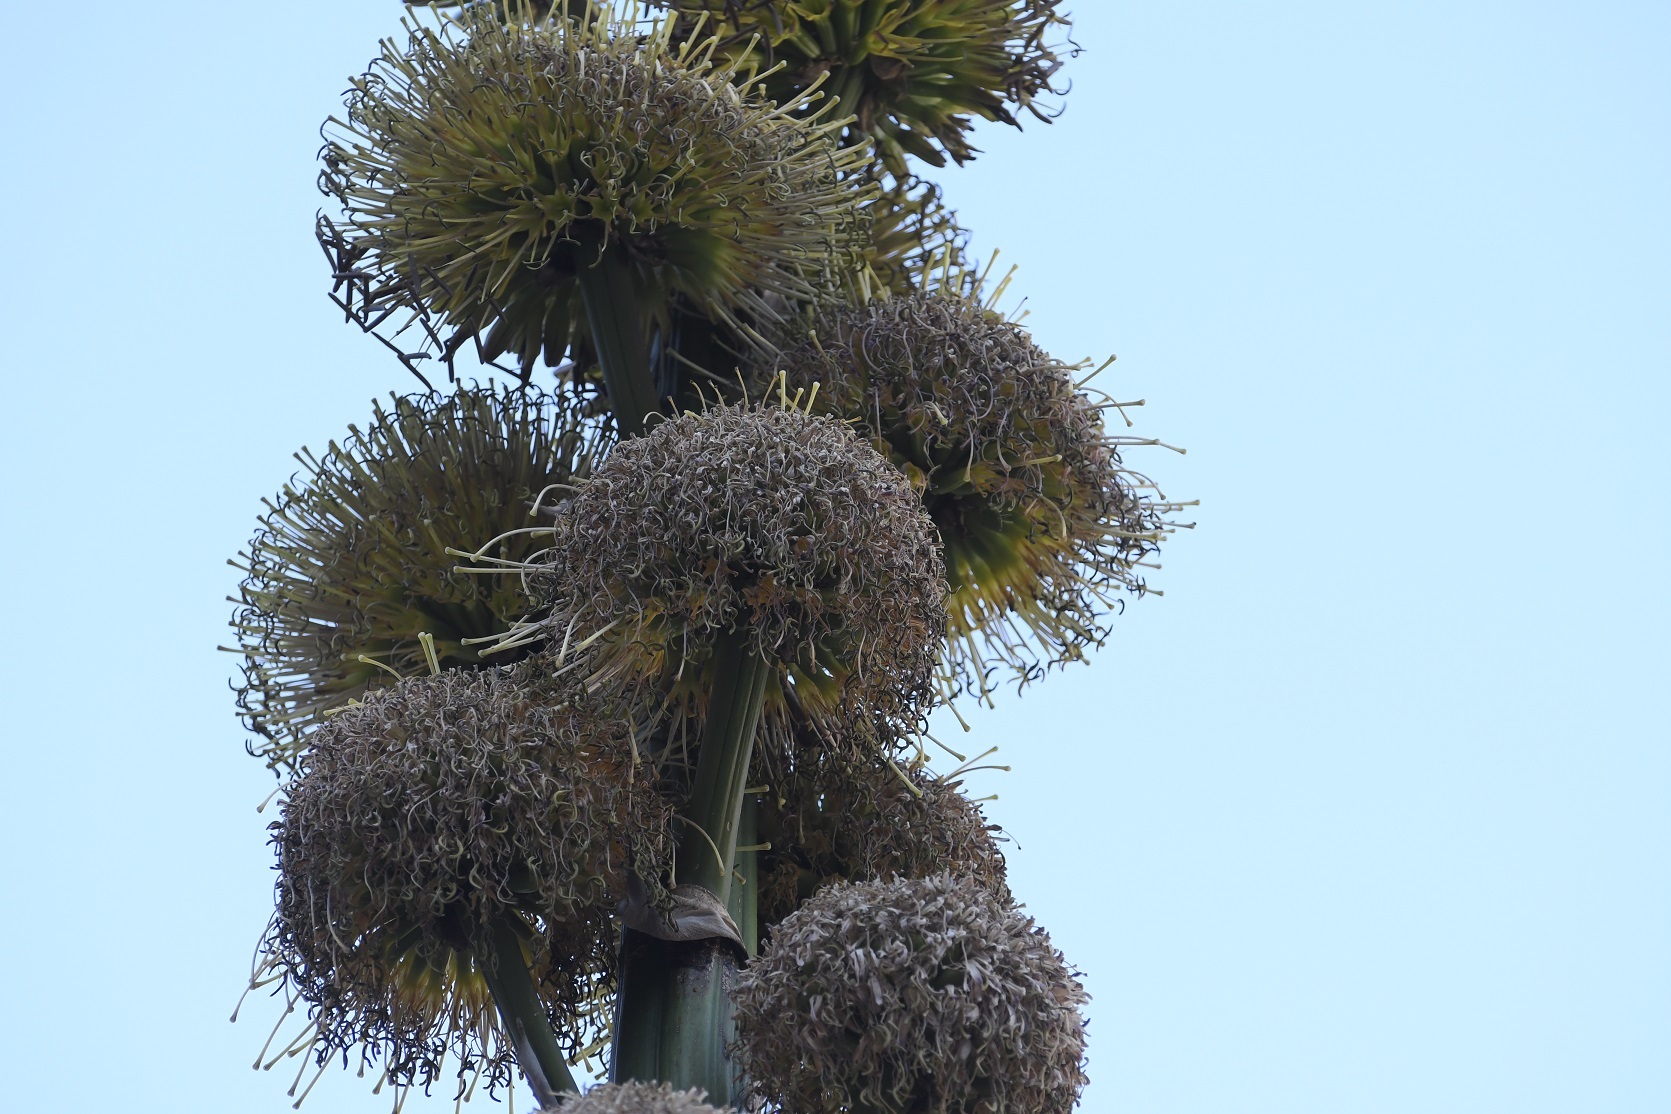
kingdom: Plantae
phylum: Tracheophyta
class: Liliopsida
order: Asparagales
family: Asparagaceae
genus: Agave
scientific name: Agave congesta
